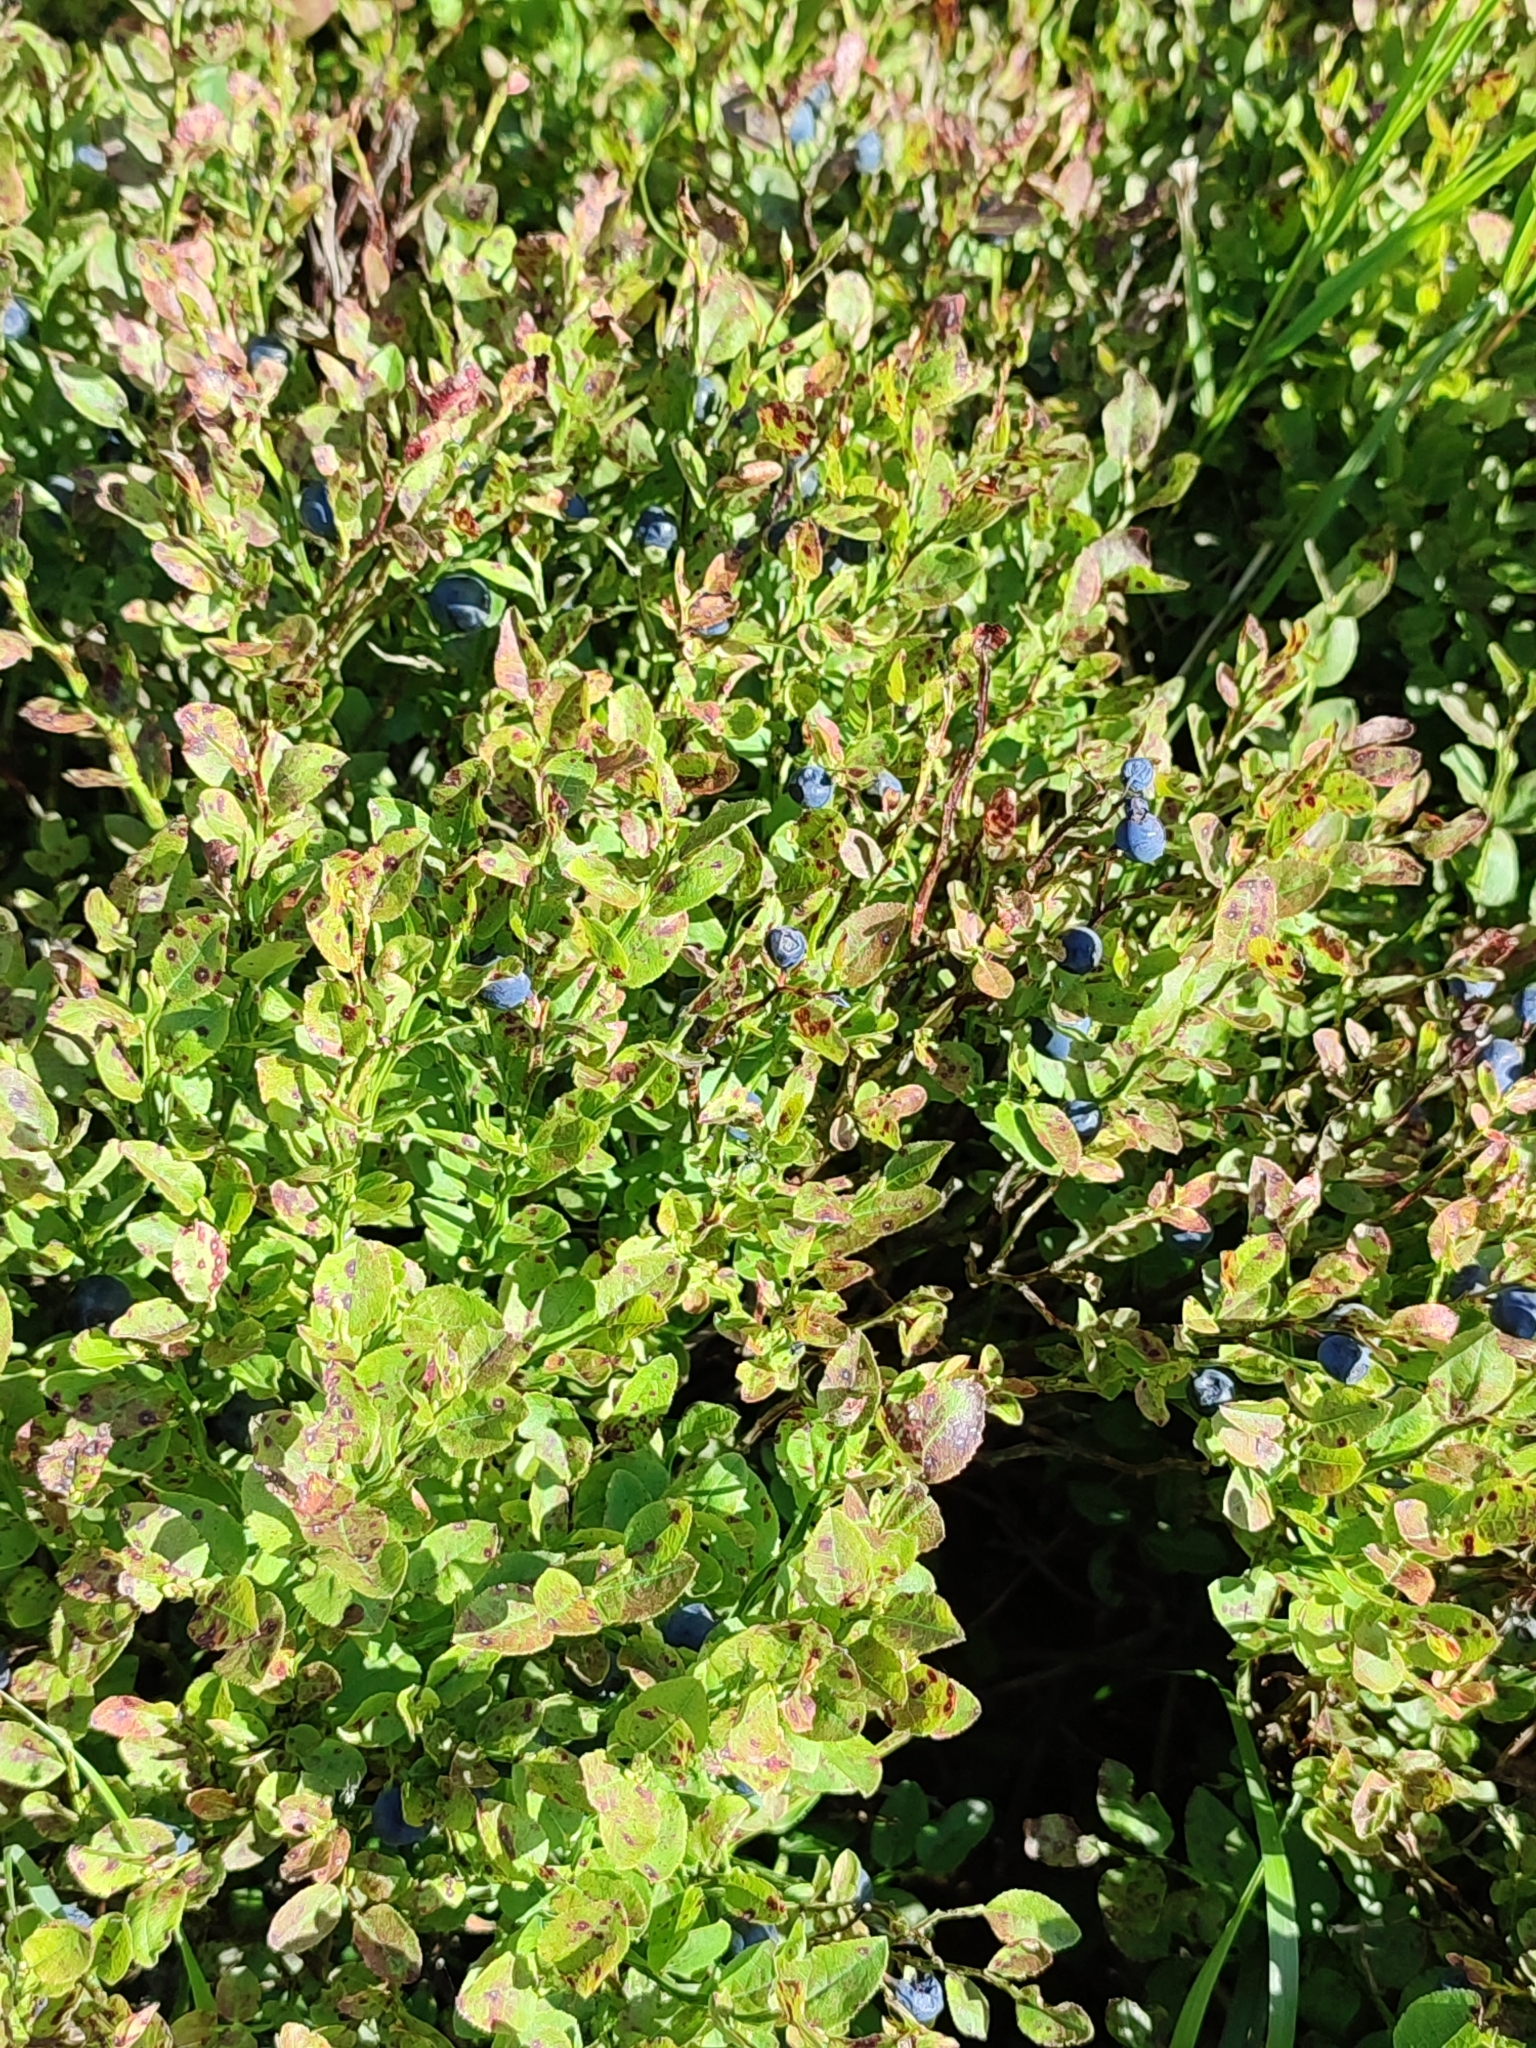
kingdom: Plantae
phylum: Tracheophyta
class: Magnoliopsida
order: Ericales
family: Ericaceae
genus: Vaccinium
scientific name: Vaccinium myrtillus
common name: Bilberry
